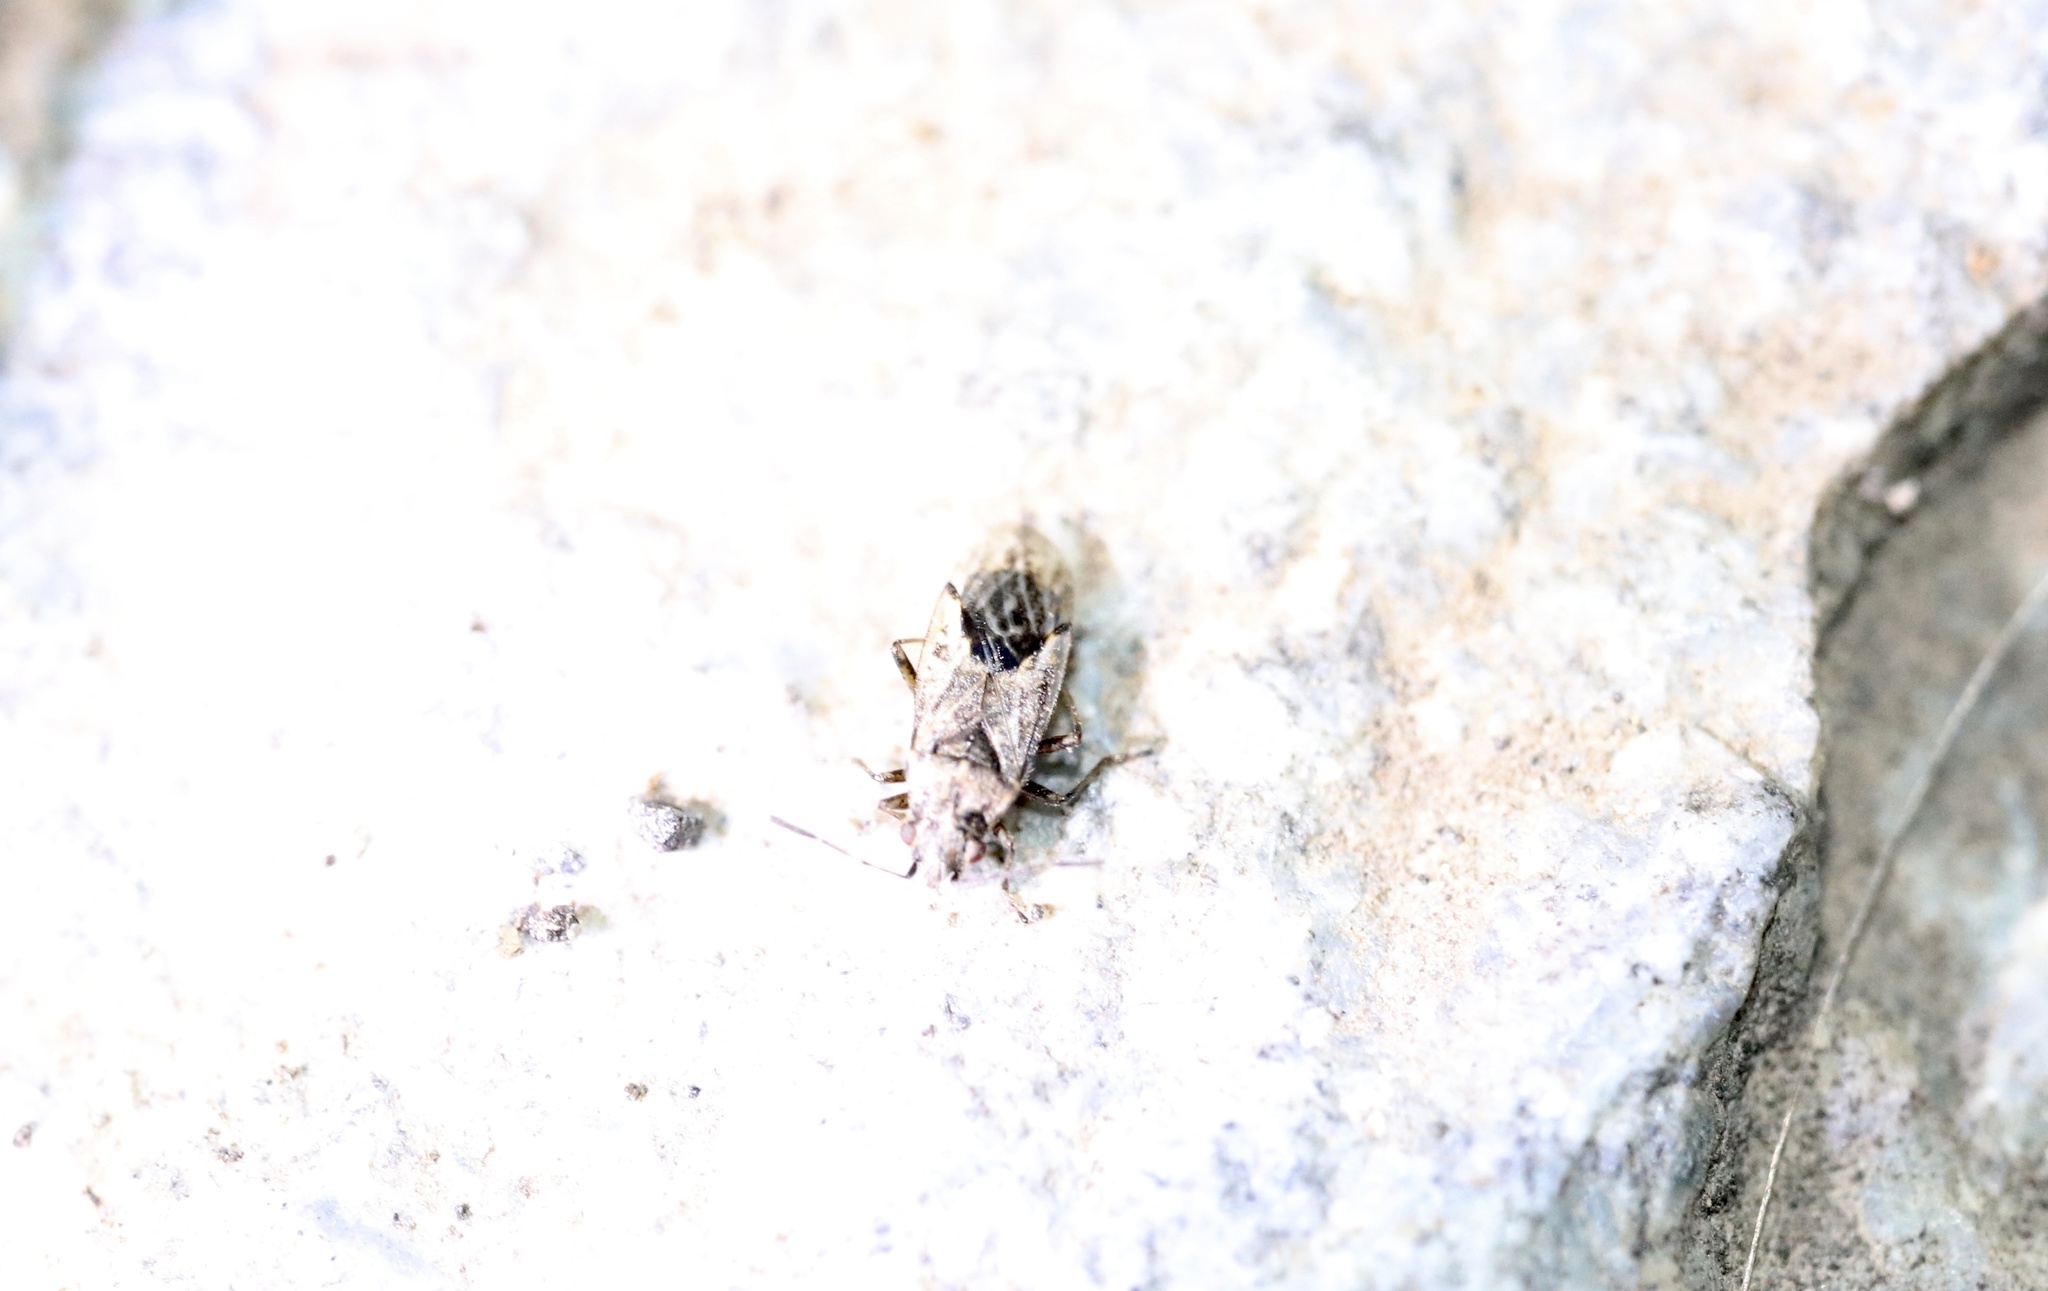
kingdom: Animalia
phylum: Arthropoda
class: Insecta
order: Hemiptera
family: Lygaeidae
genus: Nysius
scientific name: Nysius
